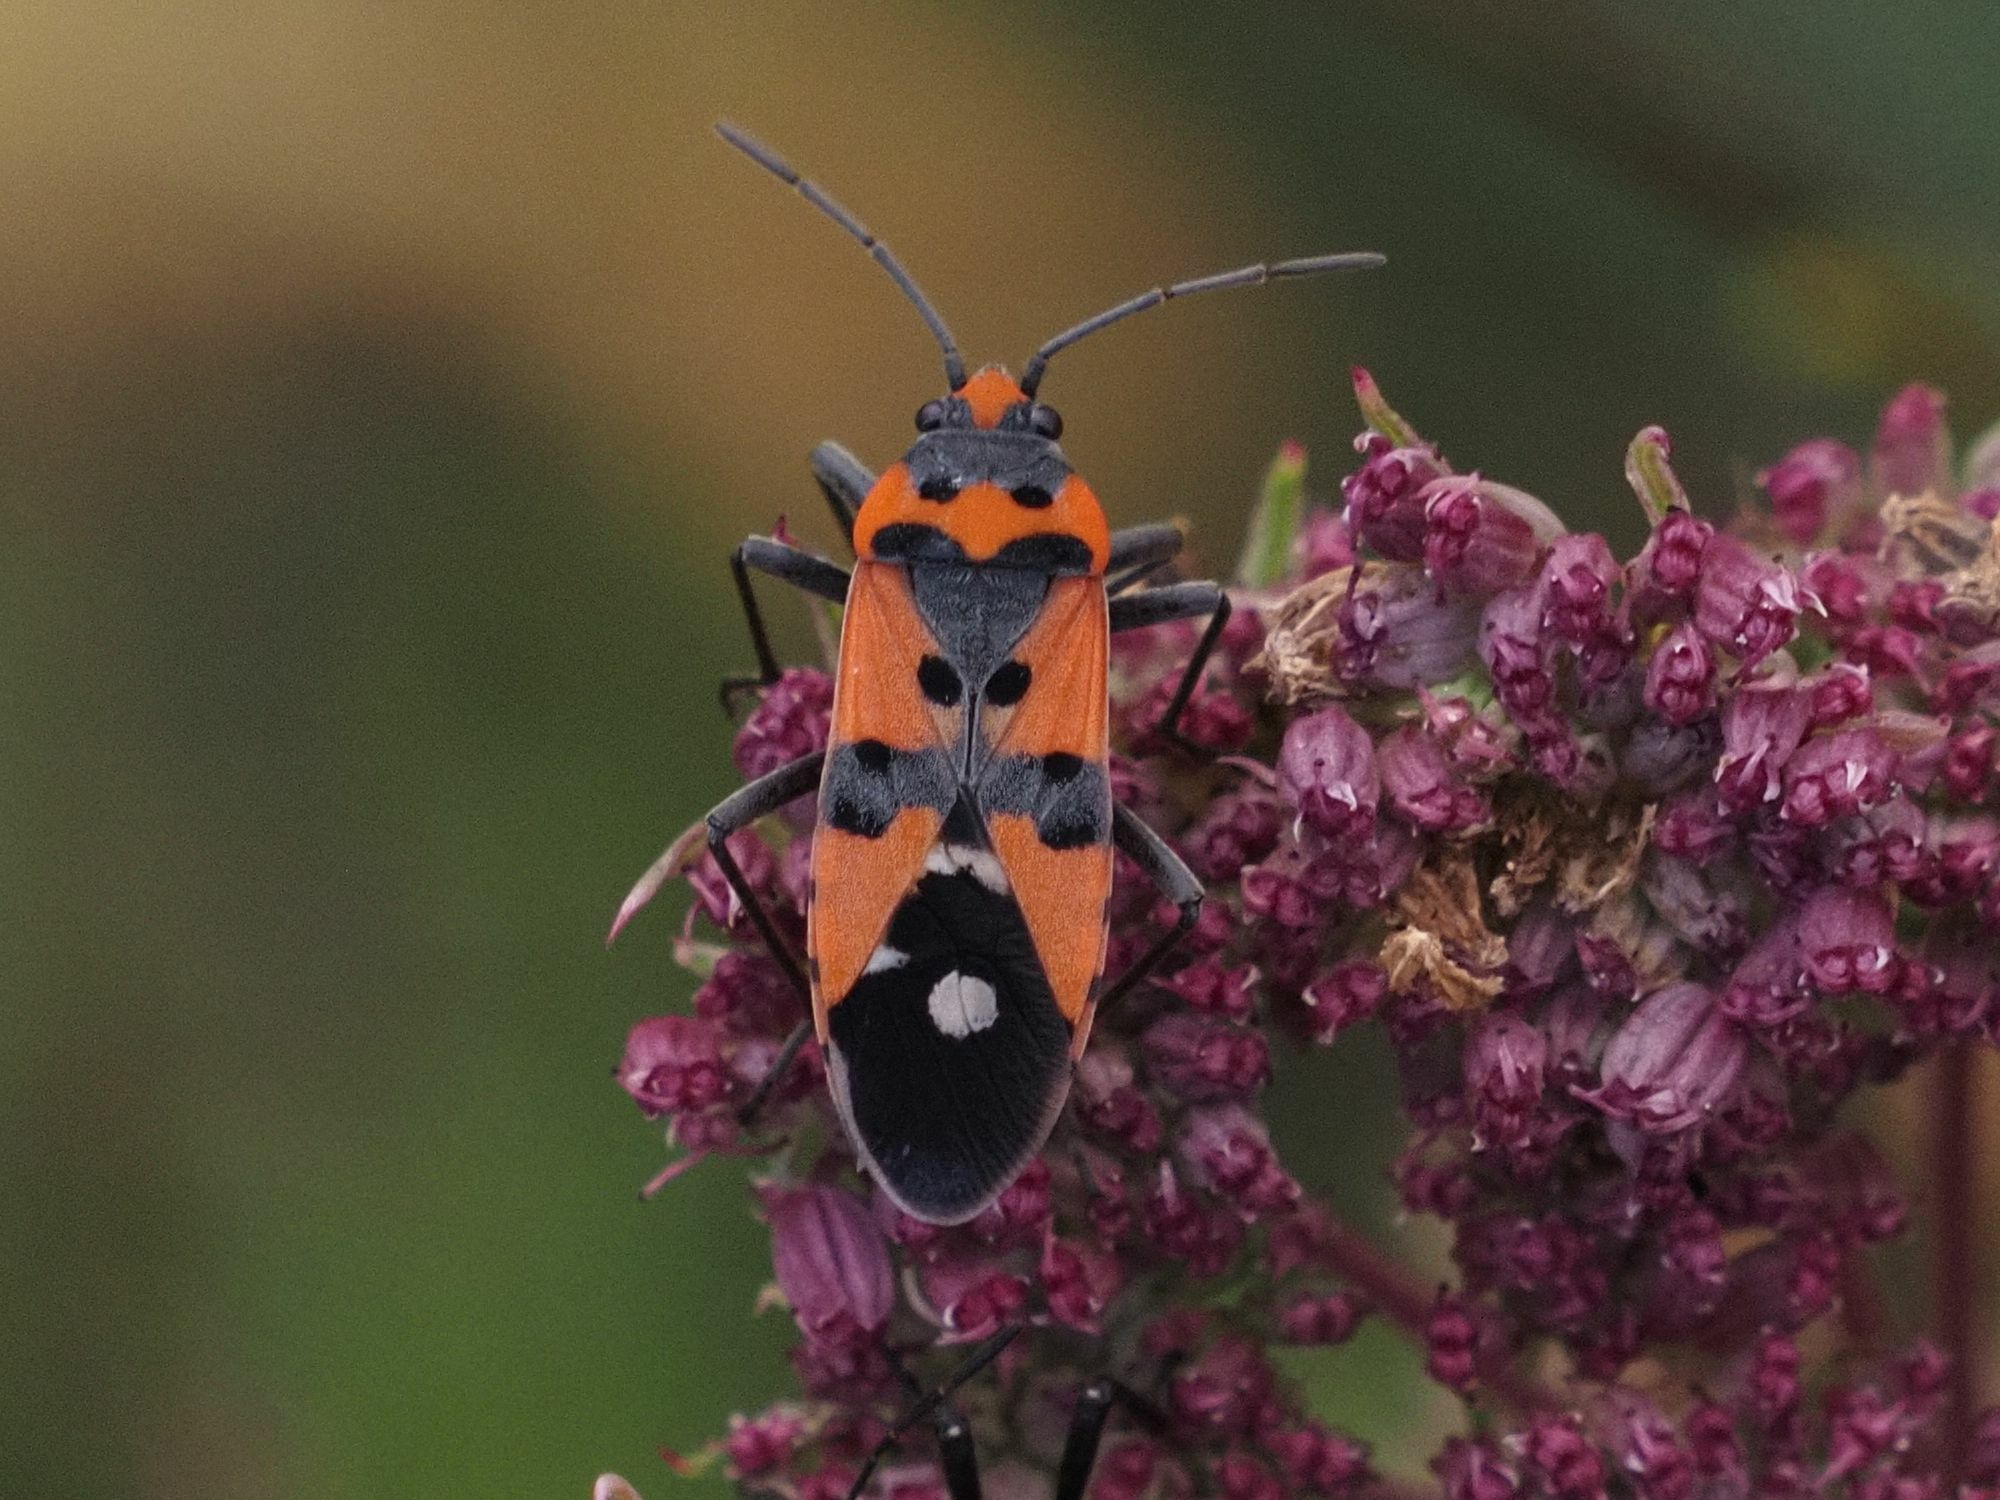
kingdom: Animalia
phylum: Arthropoda
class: Insecta
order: Hemiptera
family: Lygaeidae
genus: Lygaeus
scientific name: Lygaeus equestris
